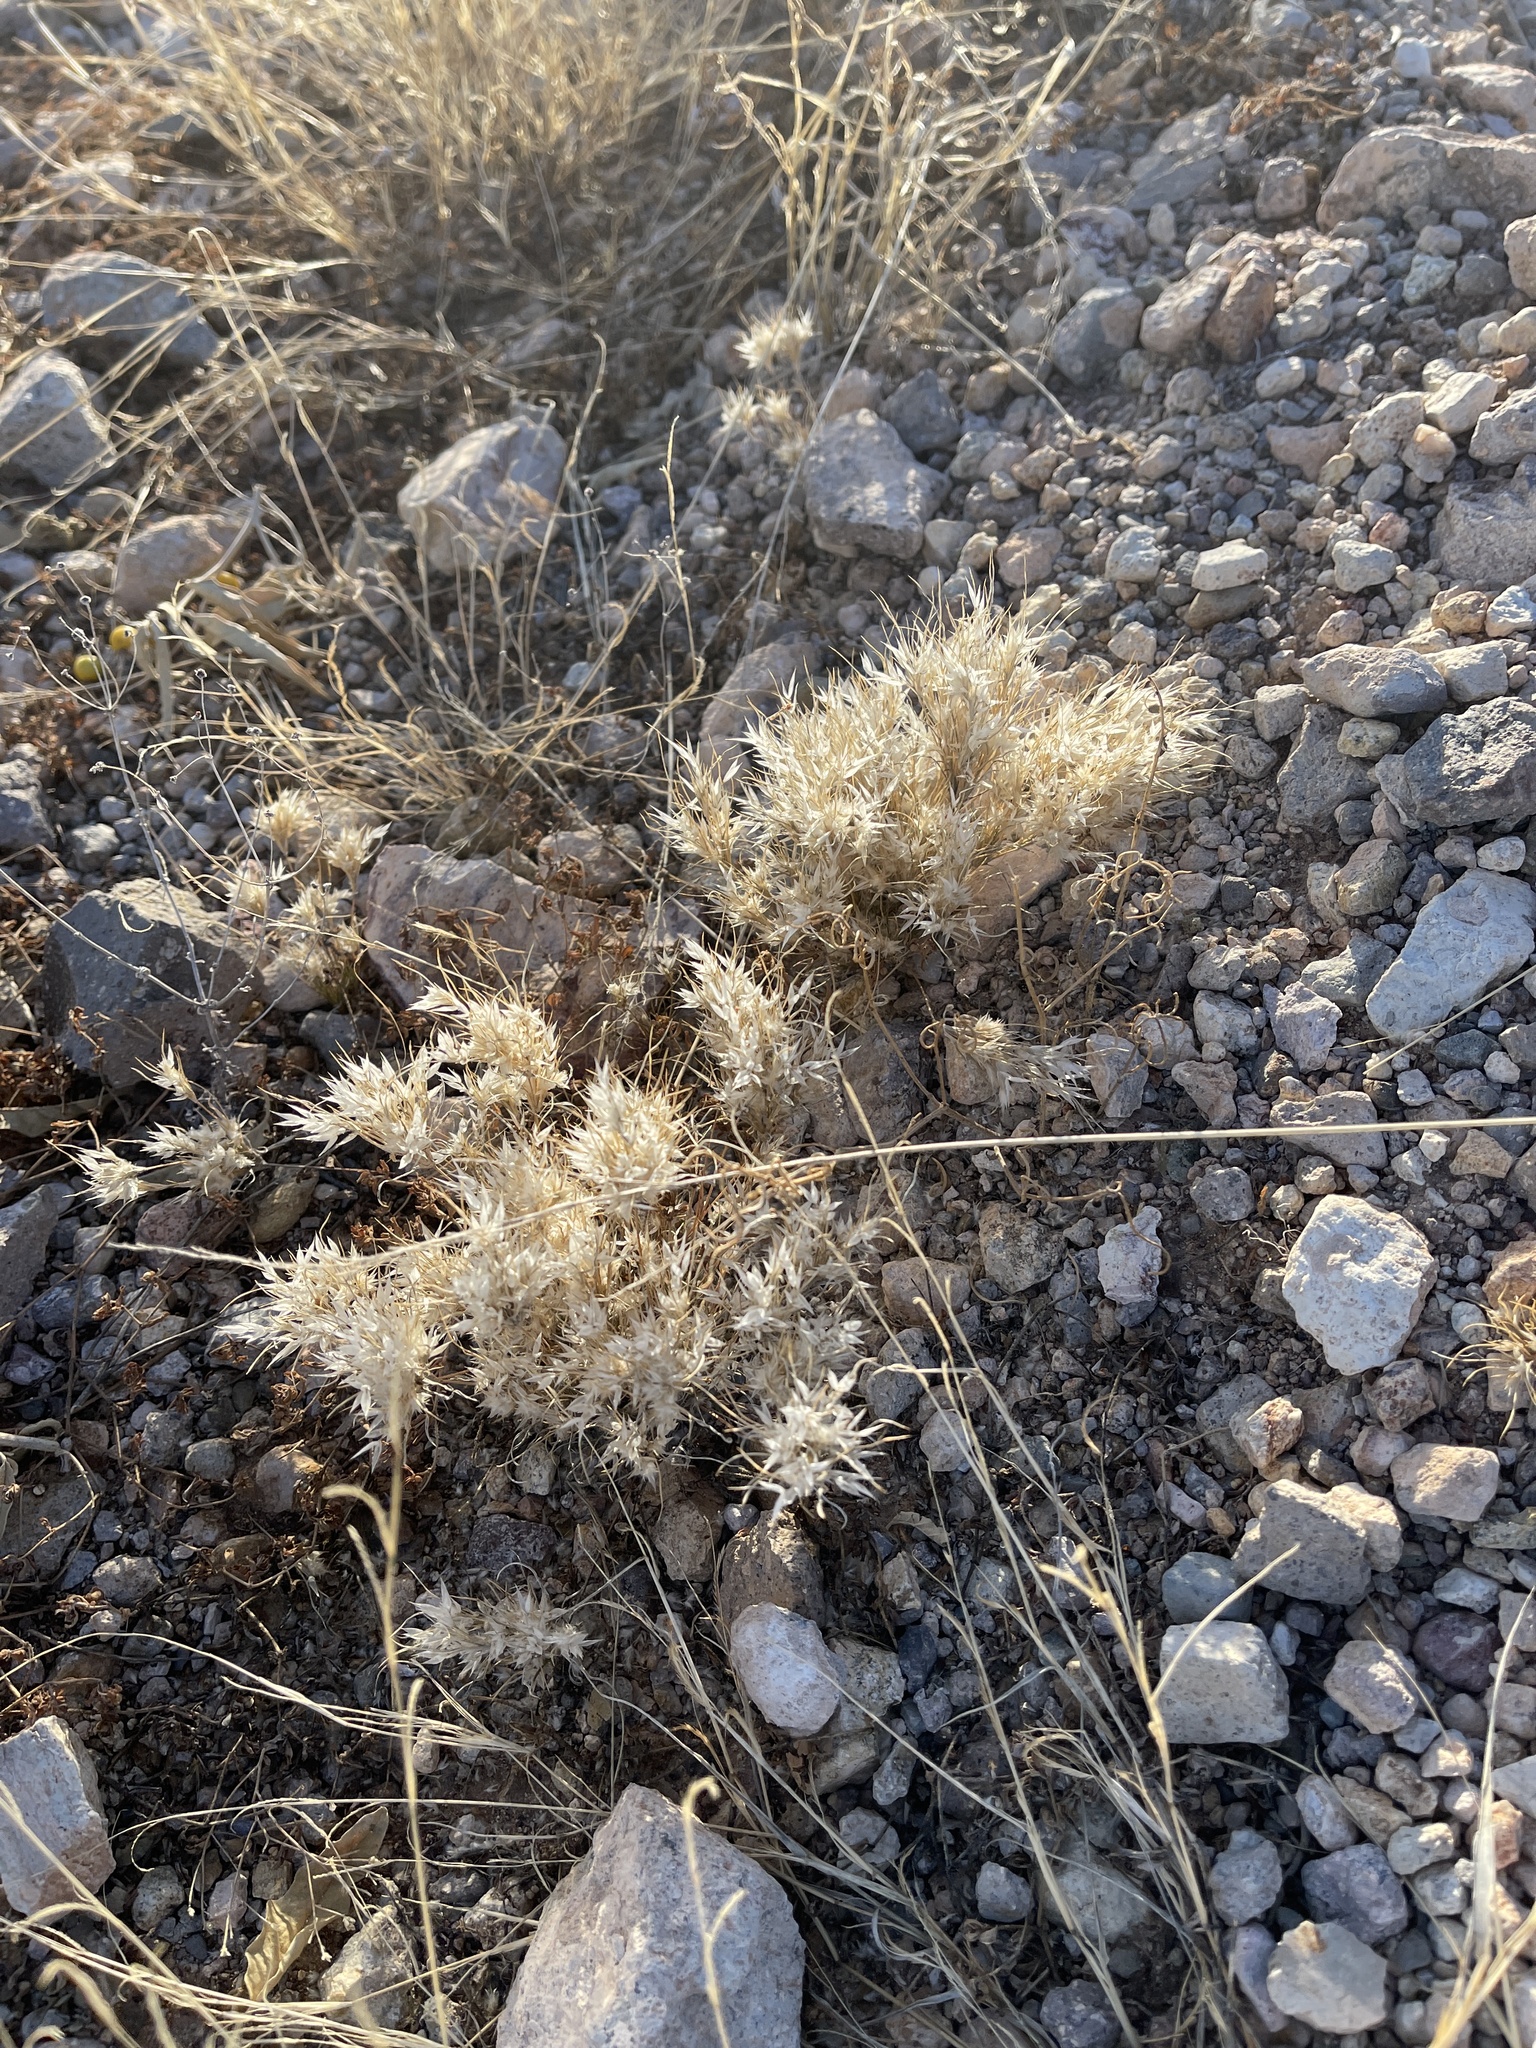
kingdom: Plantae
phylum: Tracheophyta
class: Liliopsida
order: Poales
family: Poaceae
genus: Dasyochloa
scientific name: Dasyochloa pulchella
